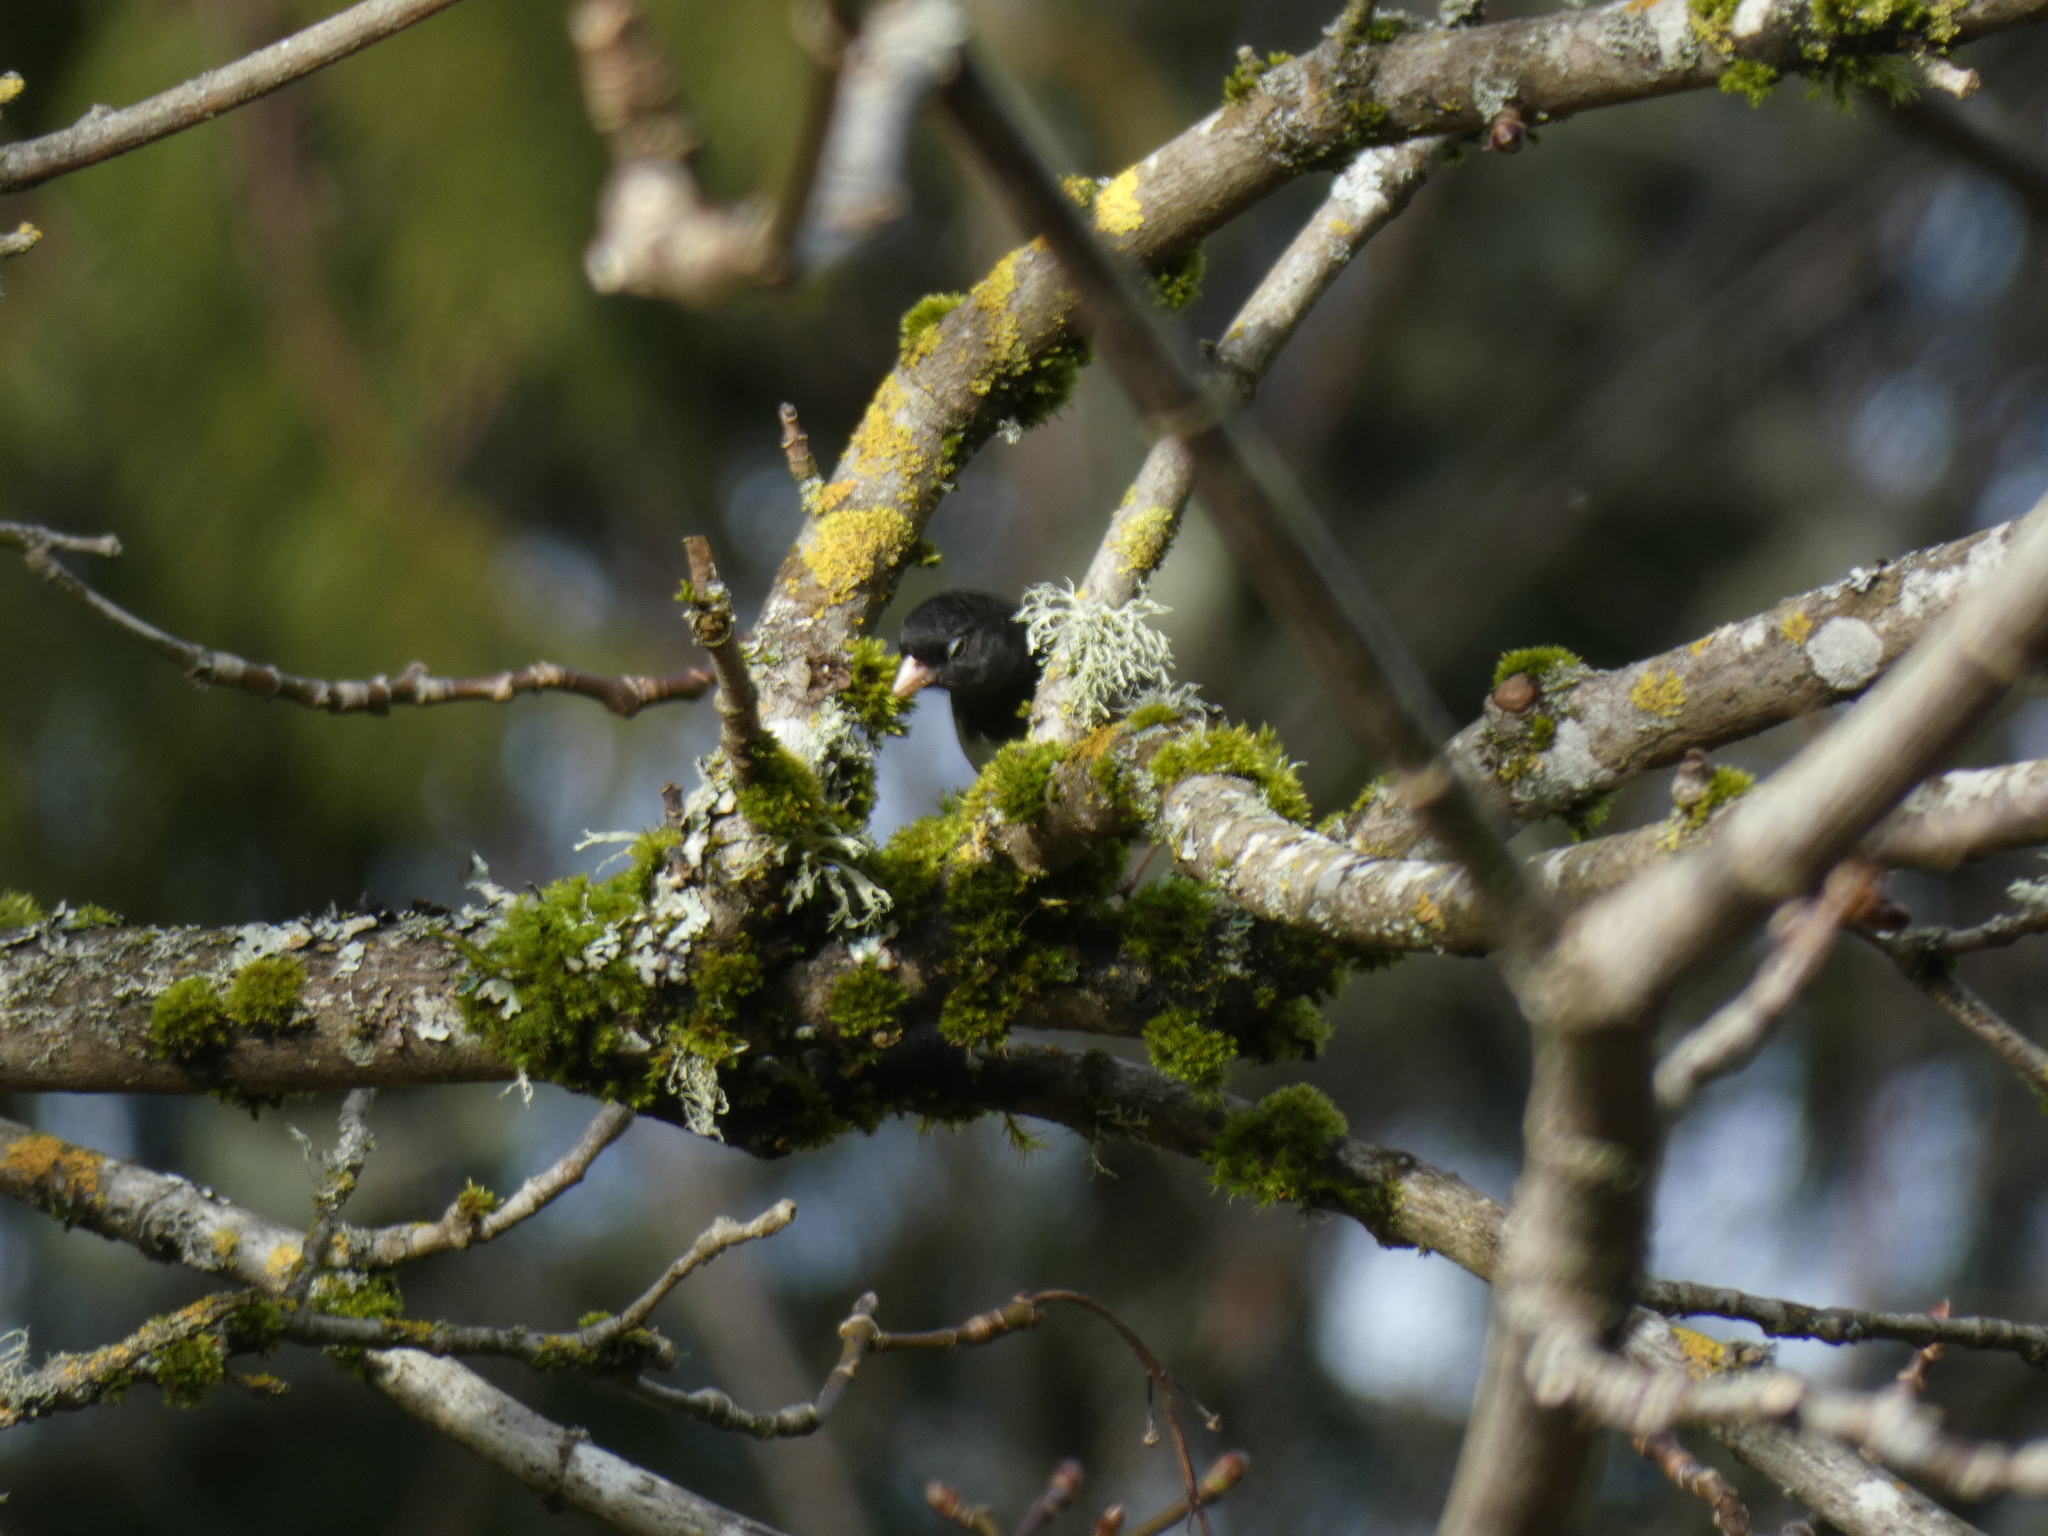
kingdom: Animalia
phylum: Chordata
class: Aves
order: Passeriformes
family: Passerellidae
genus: Junco
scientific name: Junco hyemalis
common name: Dark-eyed junco
